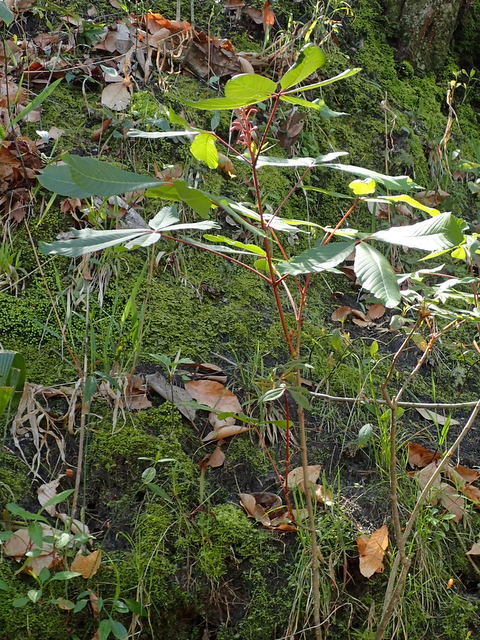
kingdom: Plantae
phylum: Tracheophyta
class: Magnoliopsida
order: Sapindales
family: Sapindaceae
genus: Aesculus
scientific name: Aesculus pavia
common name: Red buckeye
